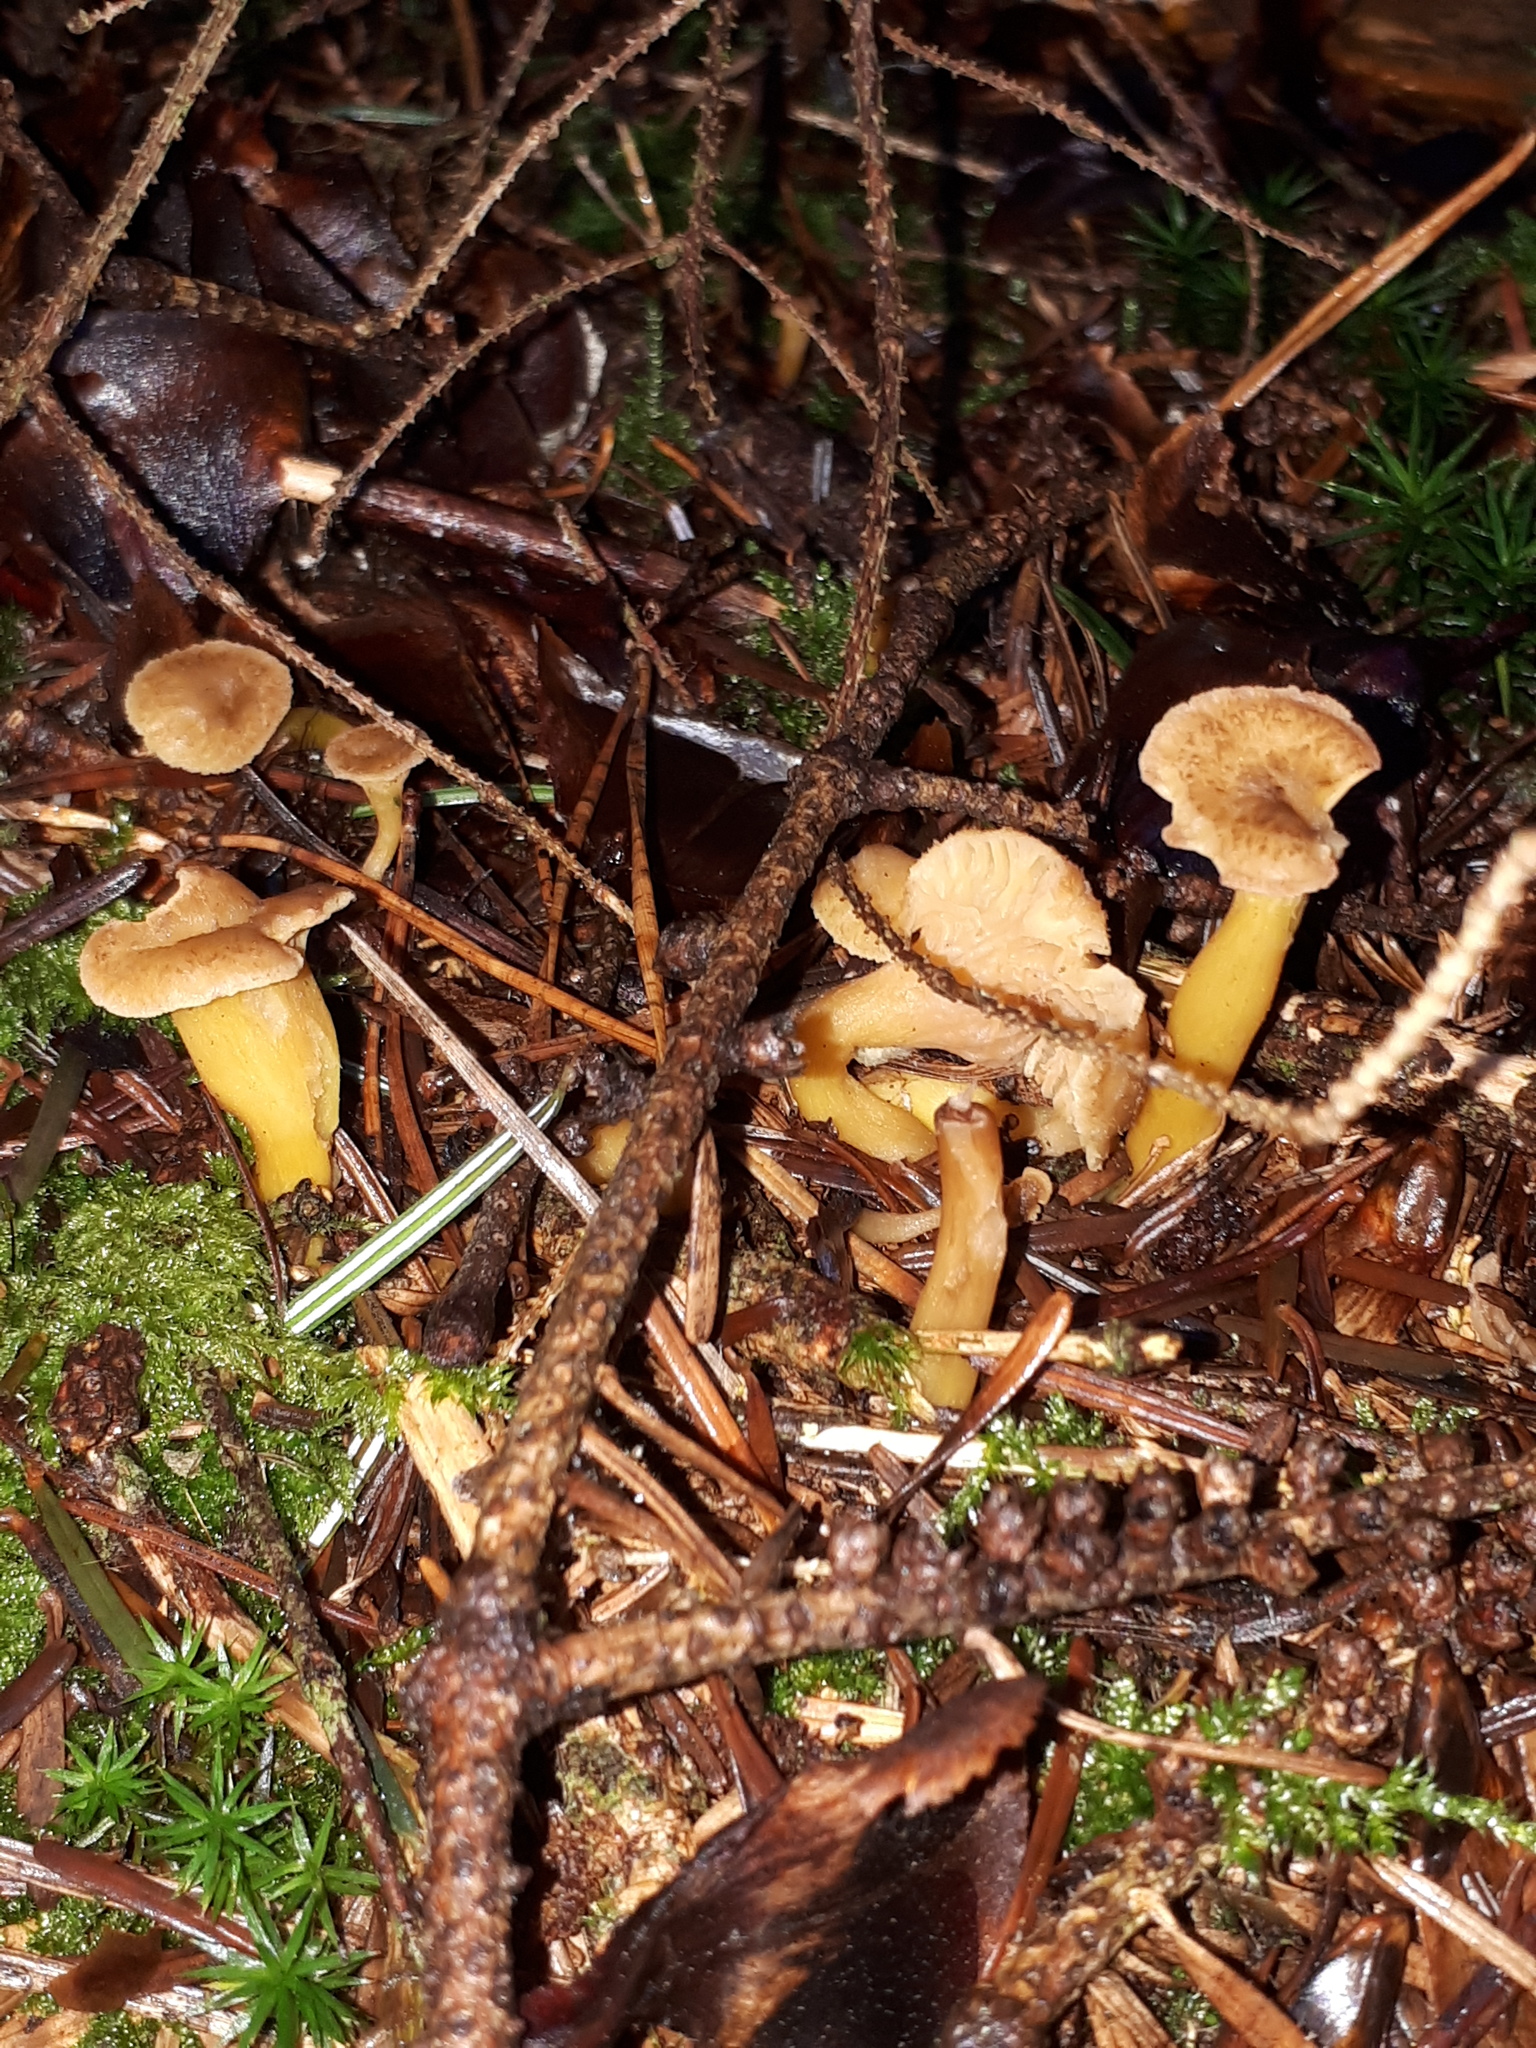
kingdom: Fungi
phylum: Basidiomycota
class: Agaricomycetes
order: Cantharellales
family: Hydnaceae
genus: Craterellus
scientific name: Craterellus tubaeformis
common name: Yellowfoot
